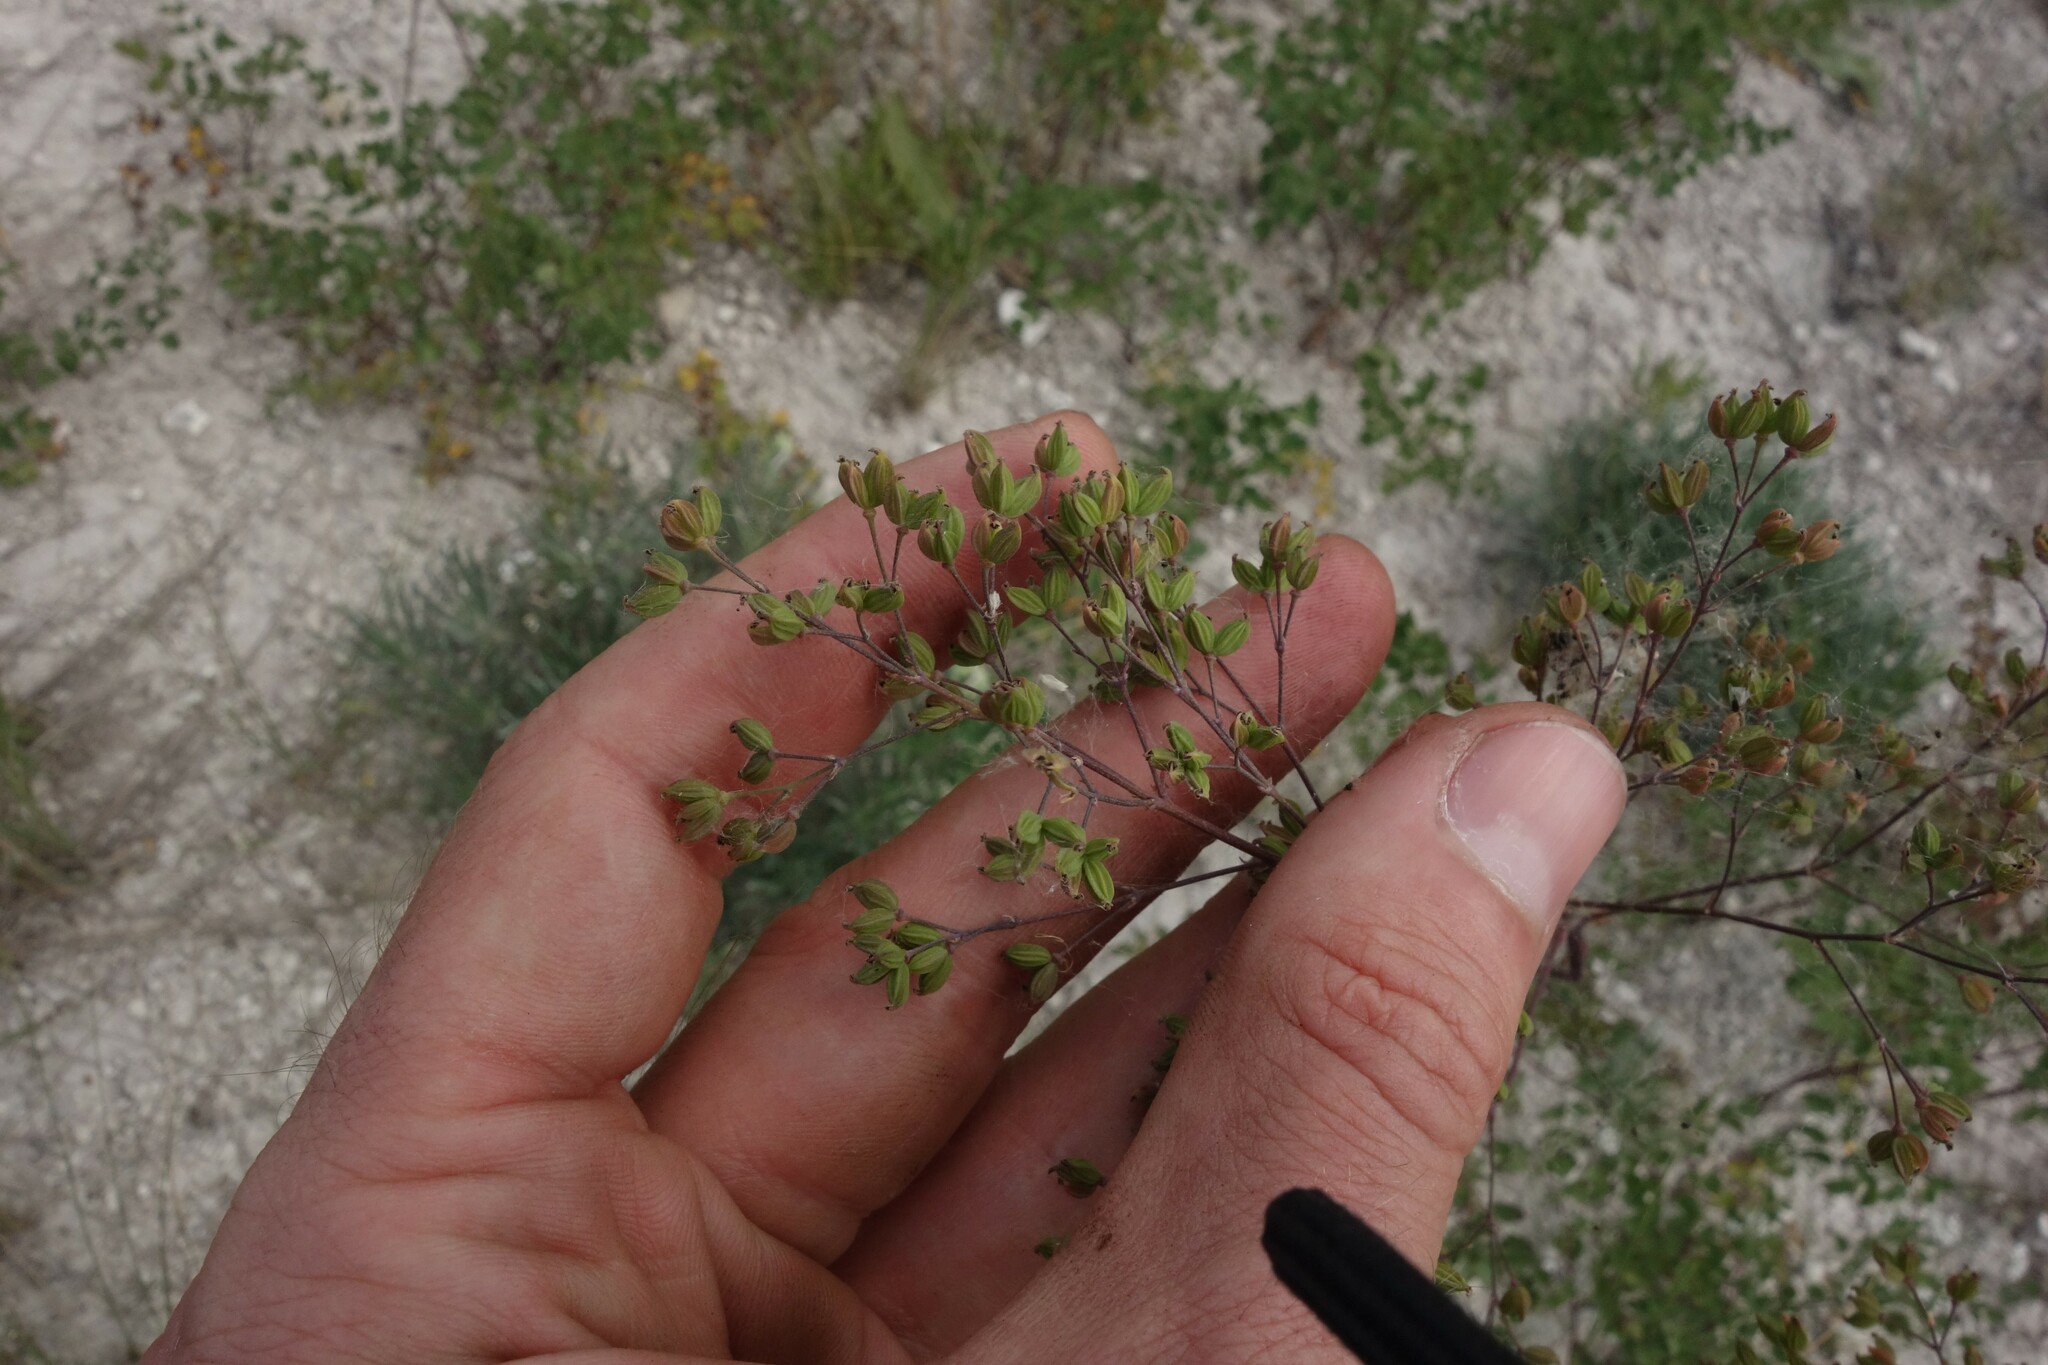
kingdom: Plantae
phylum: Tracheophyta
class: Magnoliopsida
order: Ranunculales
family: Ranunculaceae
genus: Thalictrum
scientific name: Thalictrum minus
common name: Lesser meadow-rue
